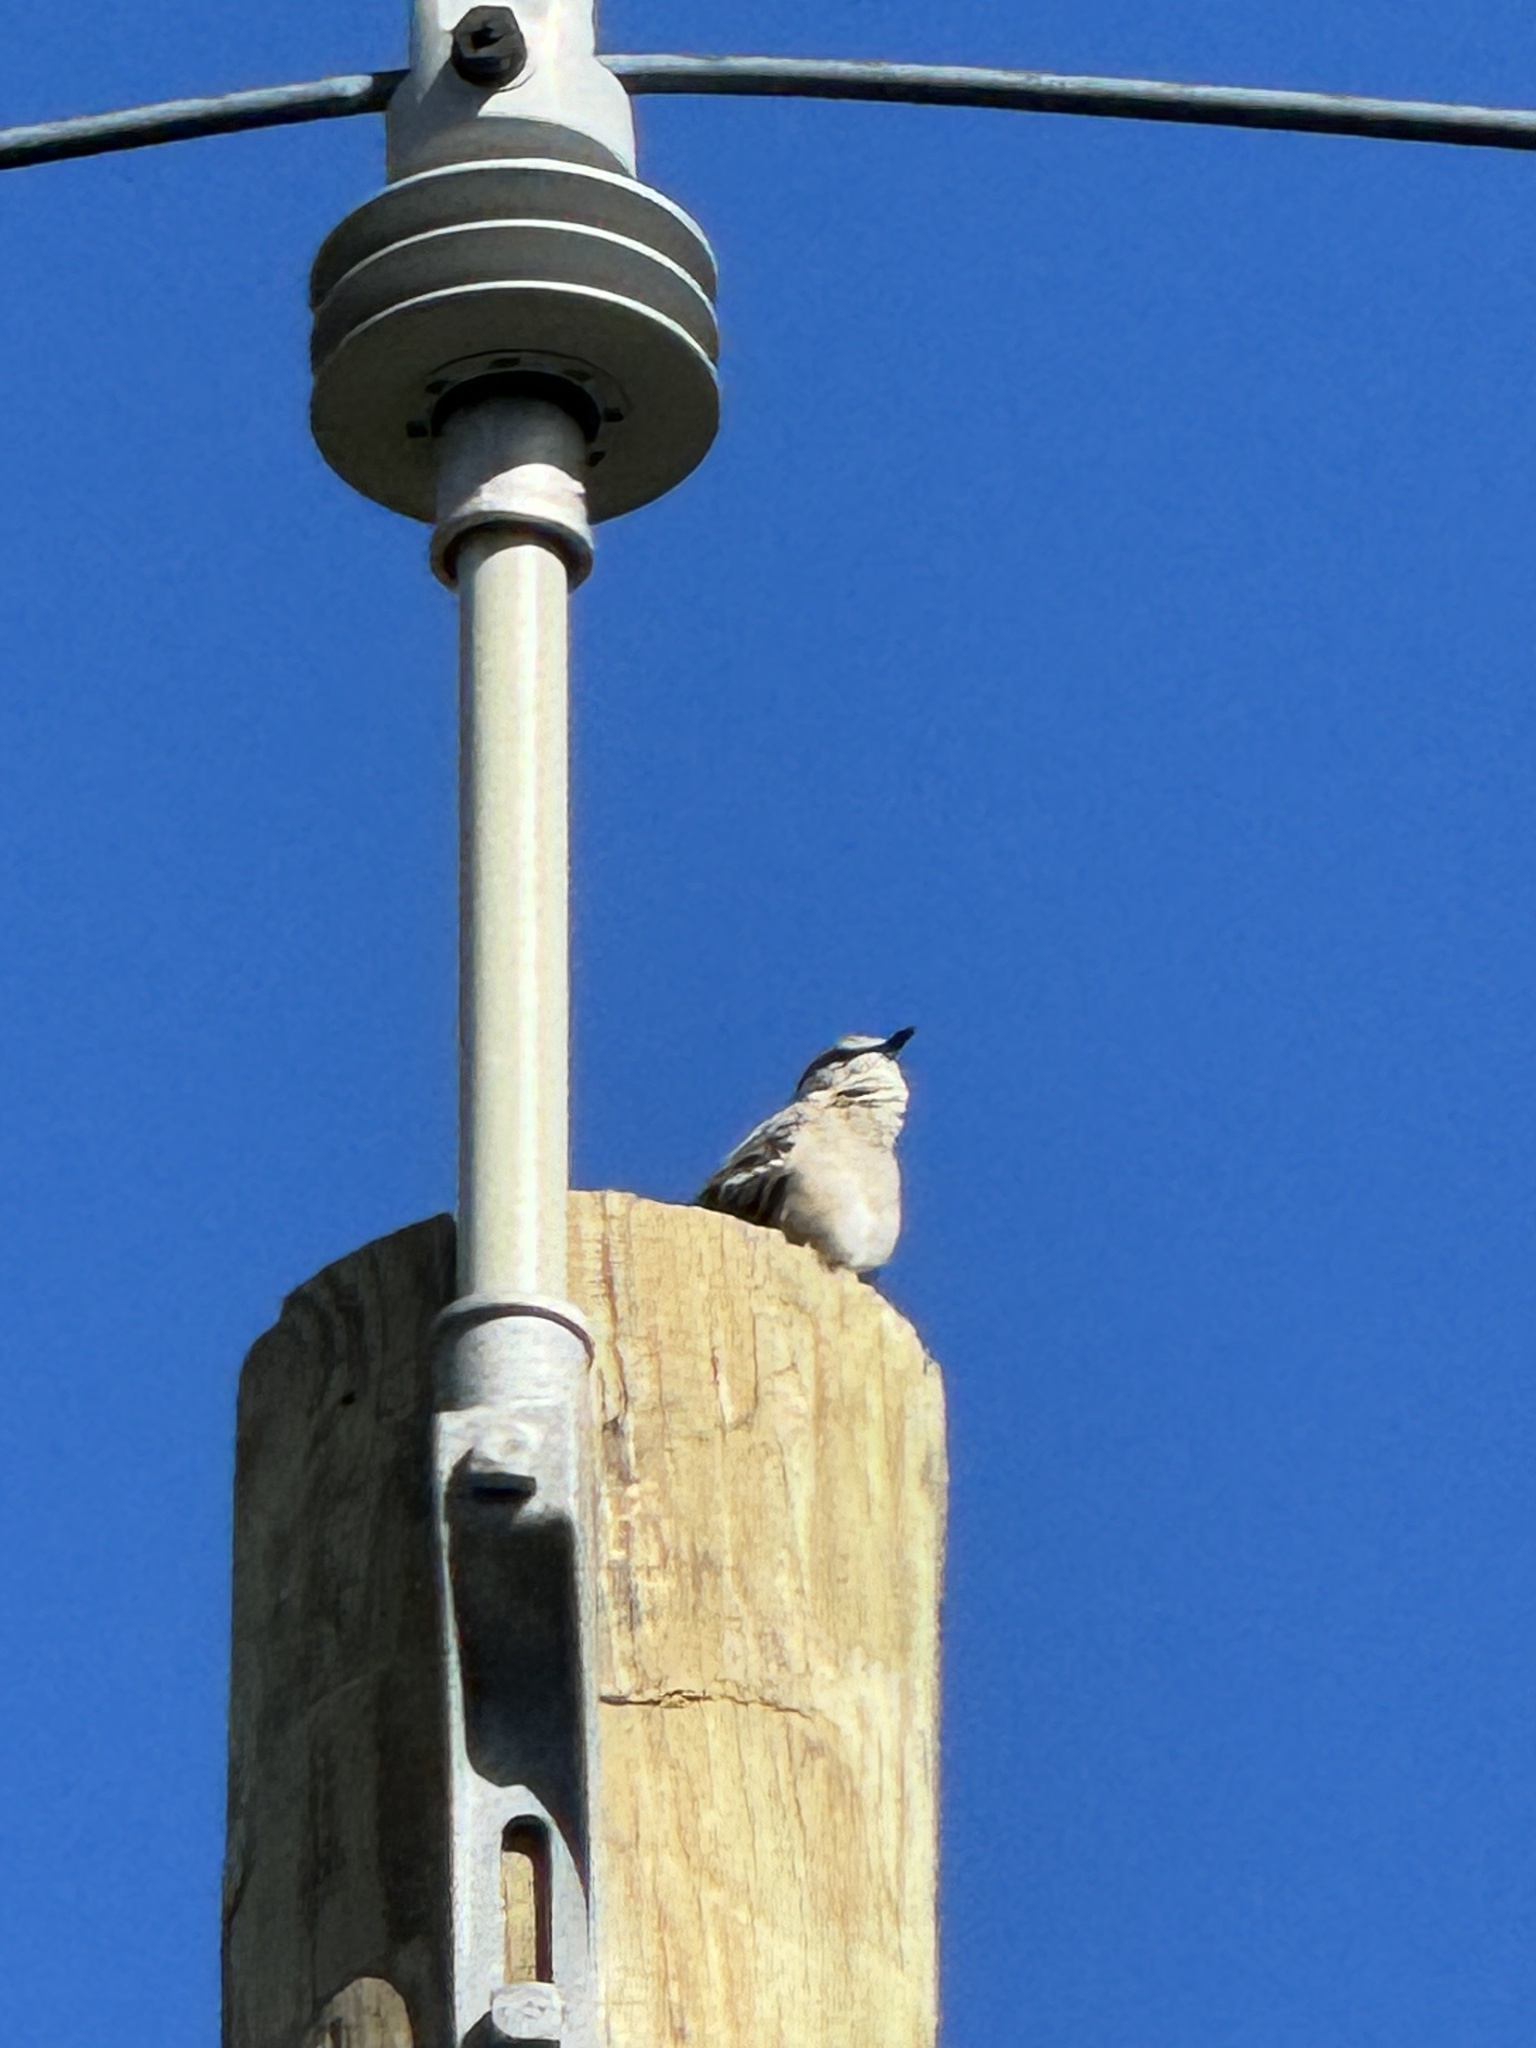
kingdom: Animalia
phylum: Chordata
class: Aves
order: Passeriformes
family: Mimidae
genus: Mimus
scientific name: Mimus polyglottos
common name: Northern mockingbird
